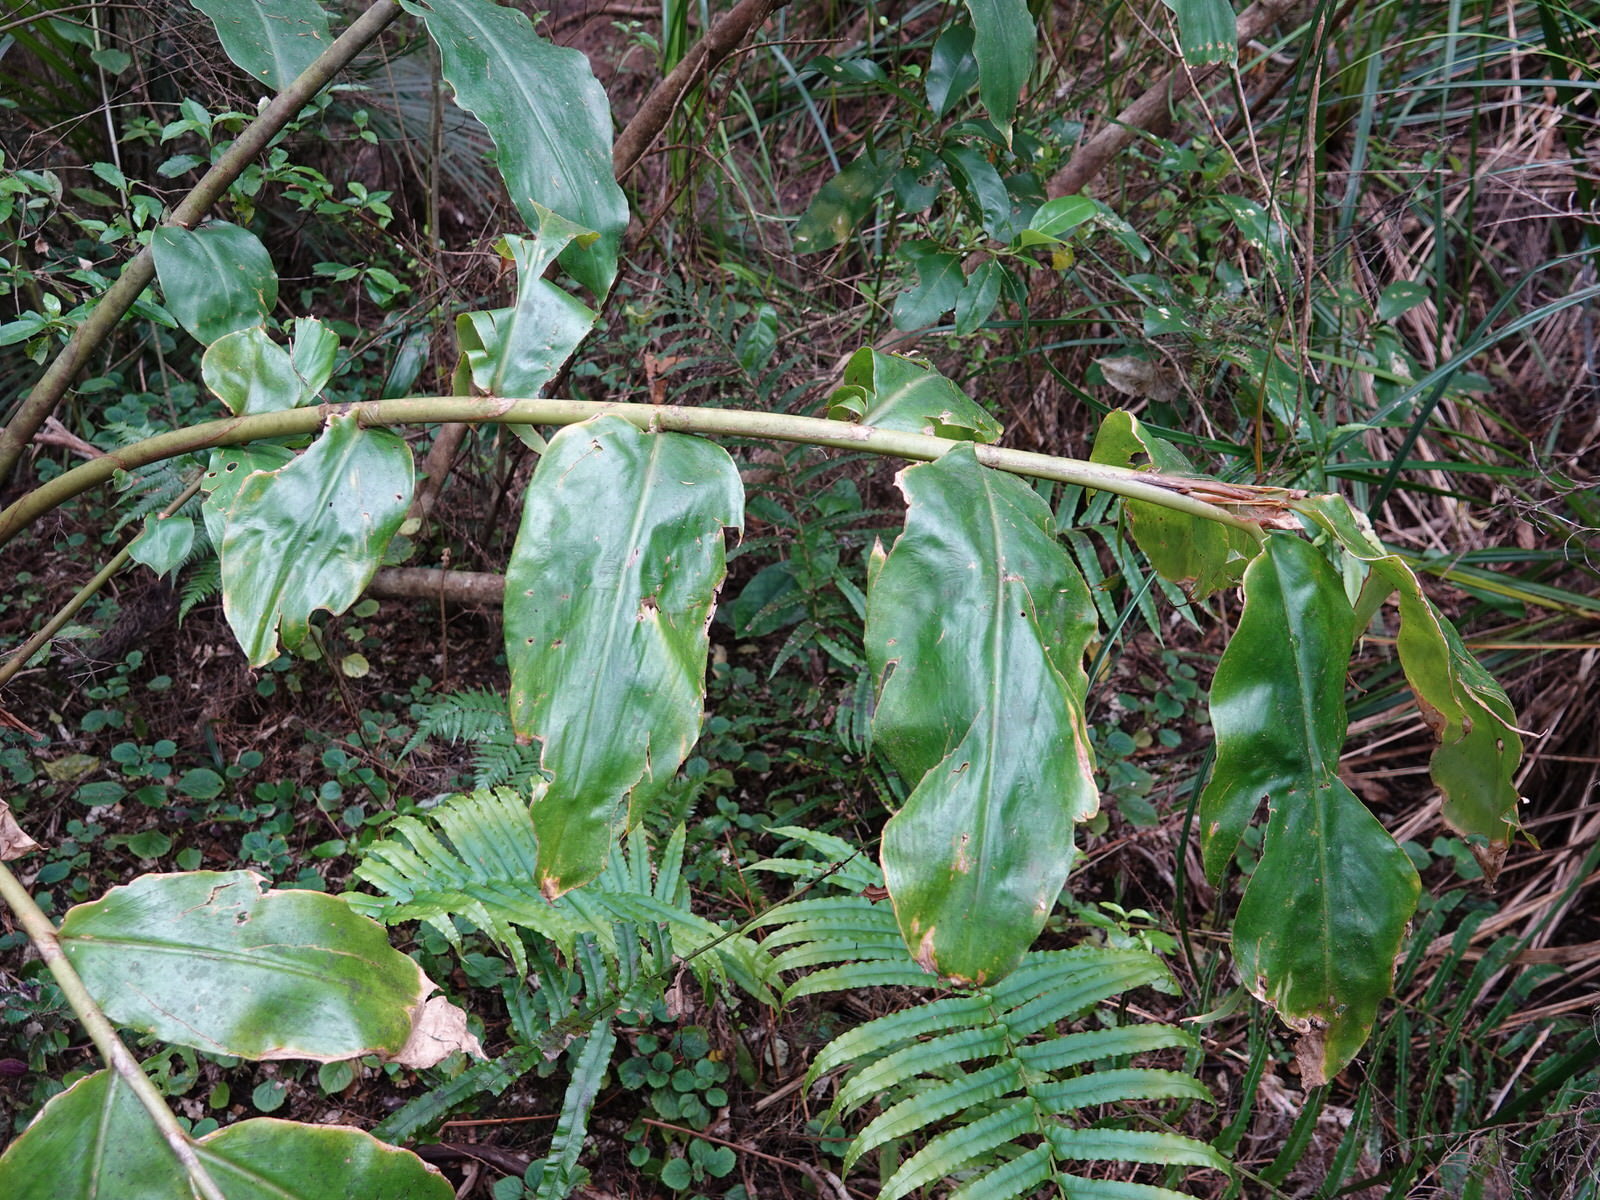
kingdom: Plantae
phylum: Tracheophyta
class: Liliopsida
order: Zingiberales
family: Zingiberaceae
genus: Hedychium
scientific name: Hedychium gardnerianum
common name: Himalayan ginger
